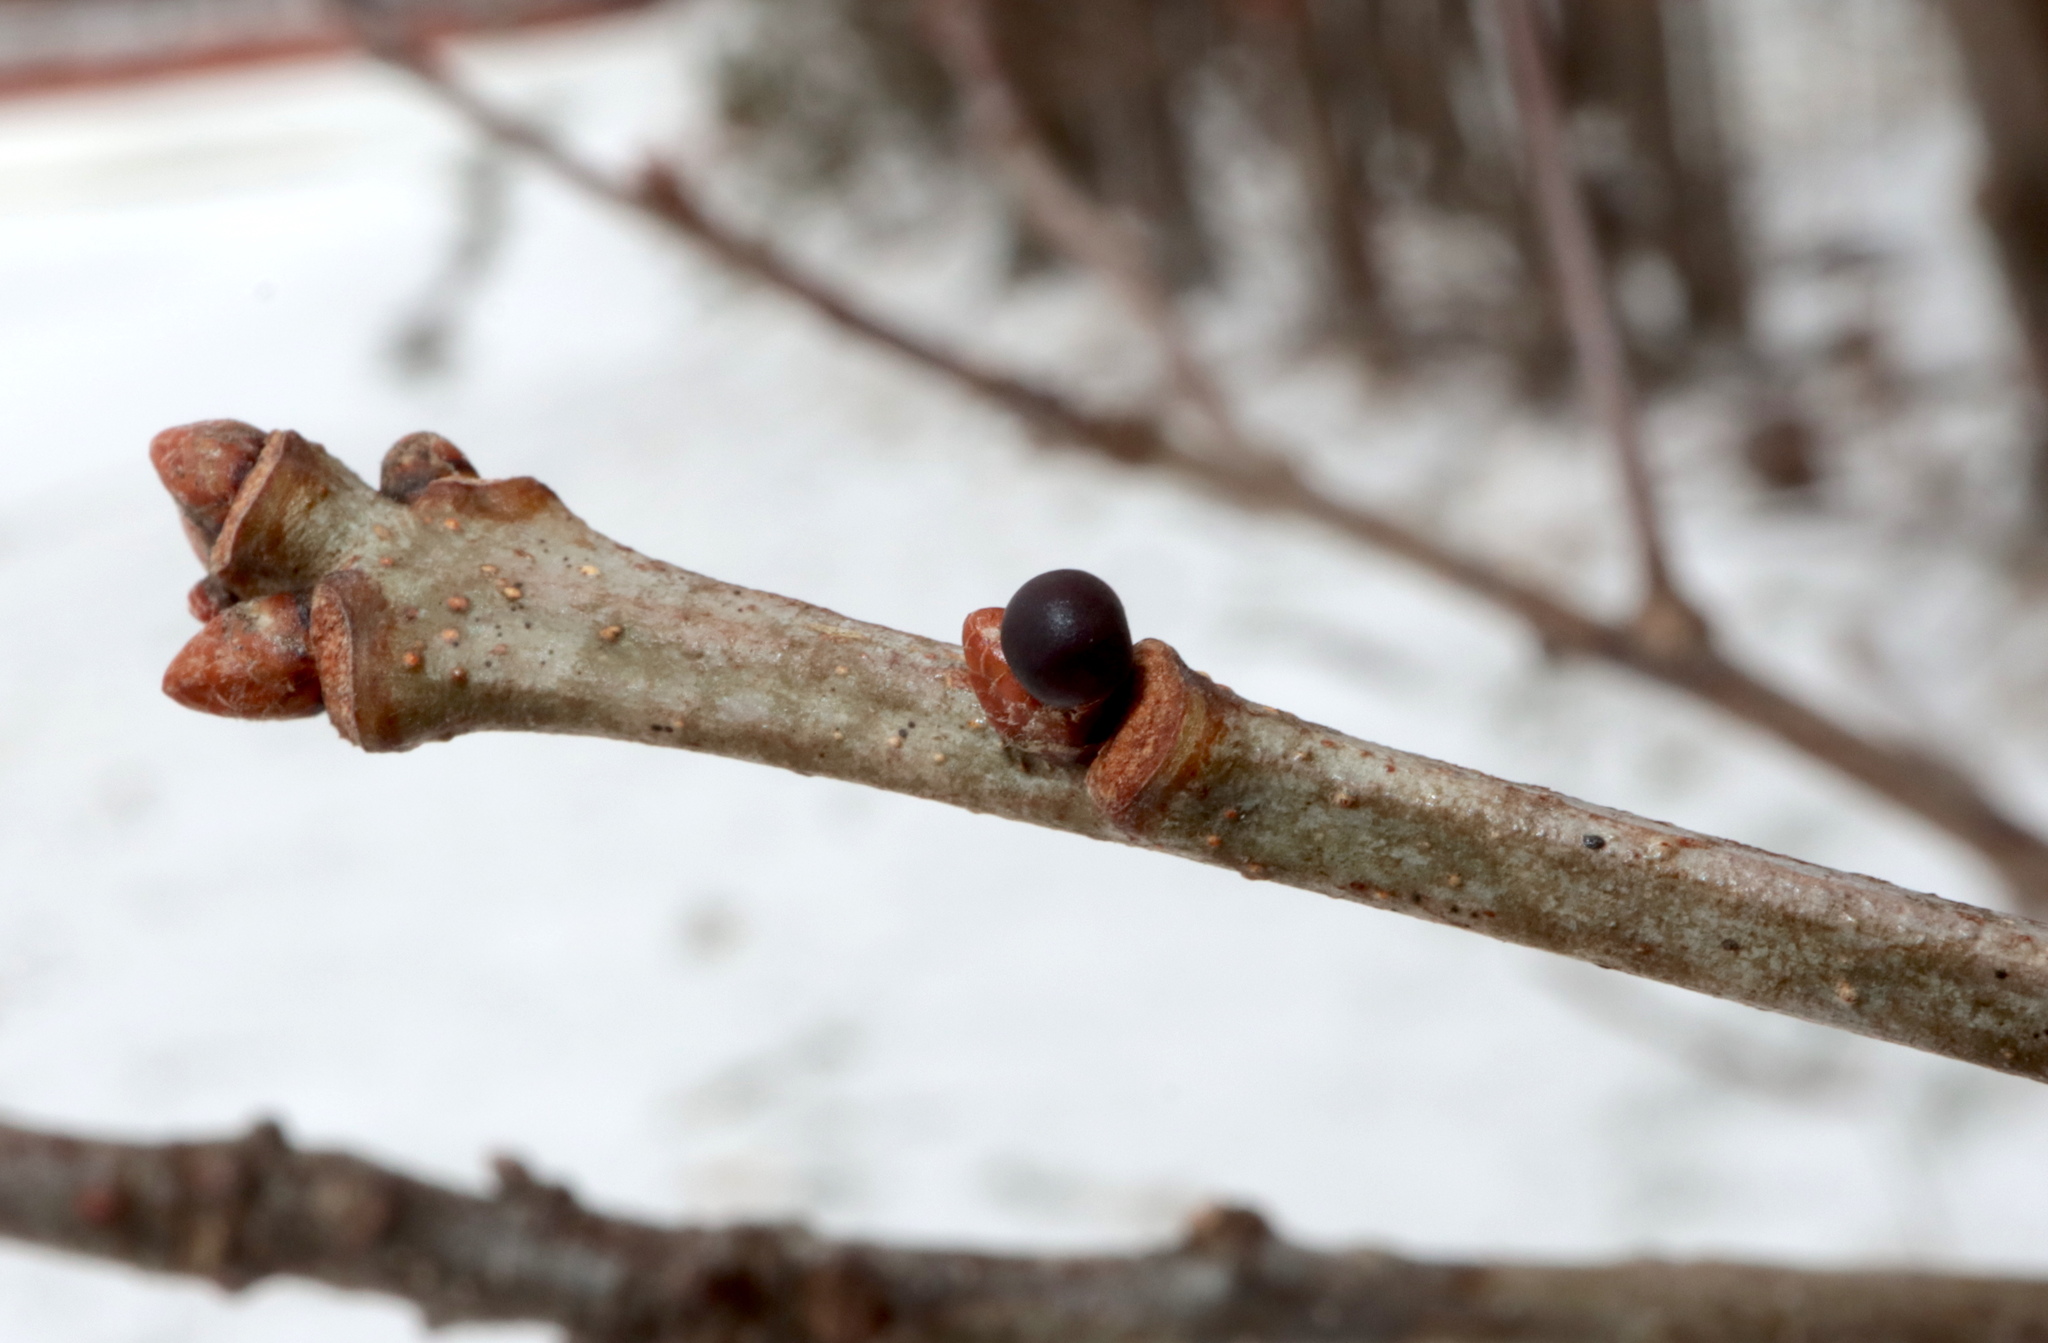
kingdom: Animalia
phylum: Arthropoda
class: Insecta
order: Hymenoptera
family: Cynipidae
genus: Neuroterus
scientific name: Neuroterus
